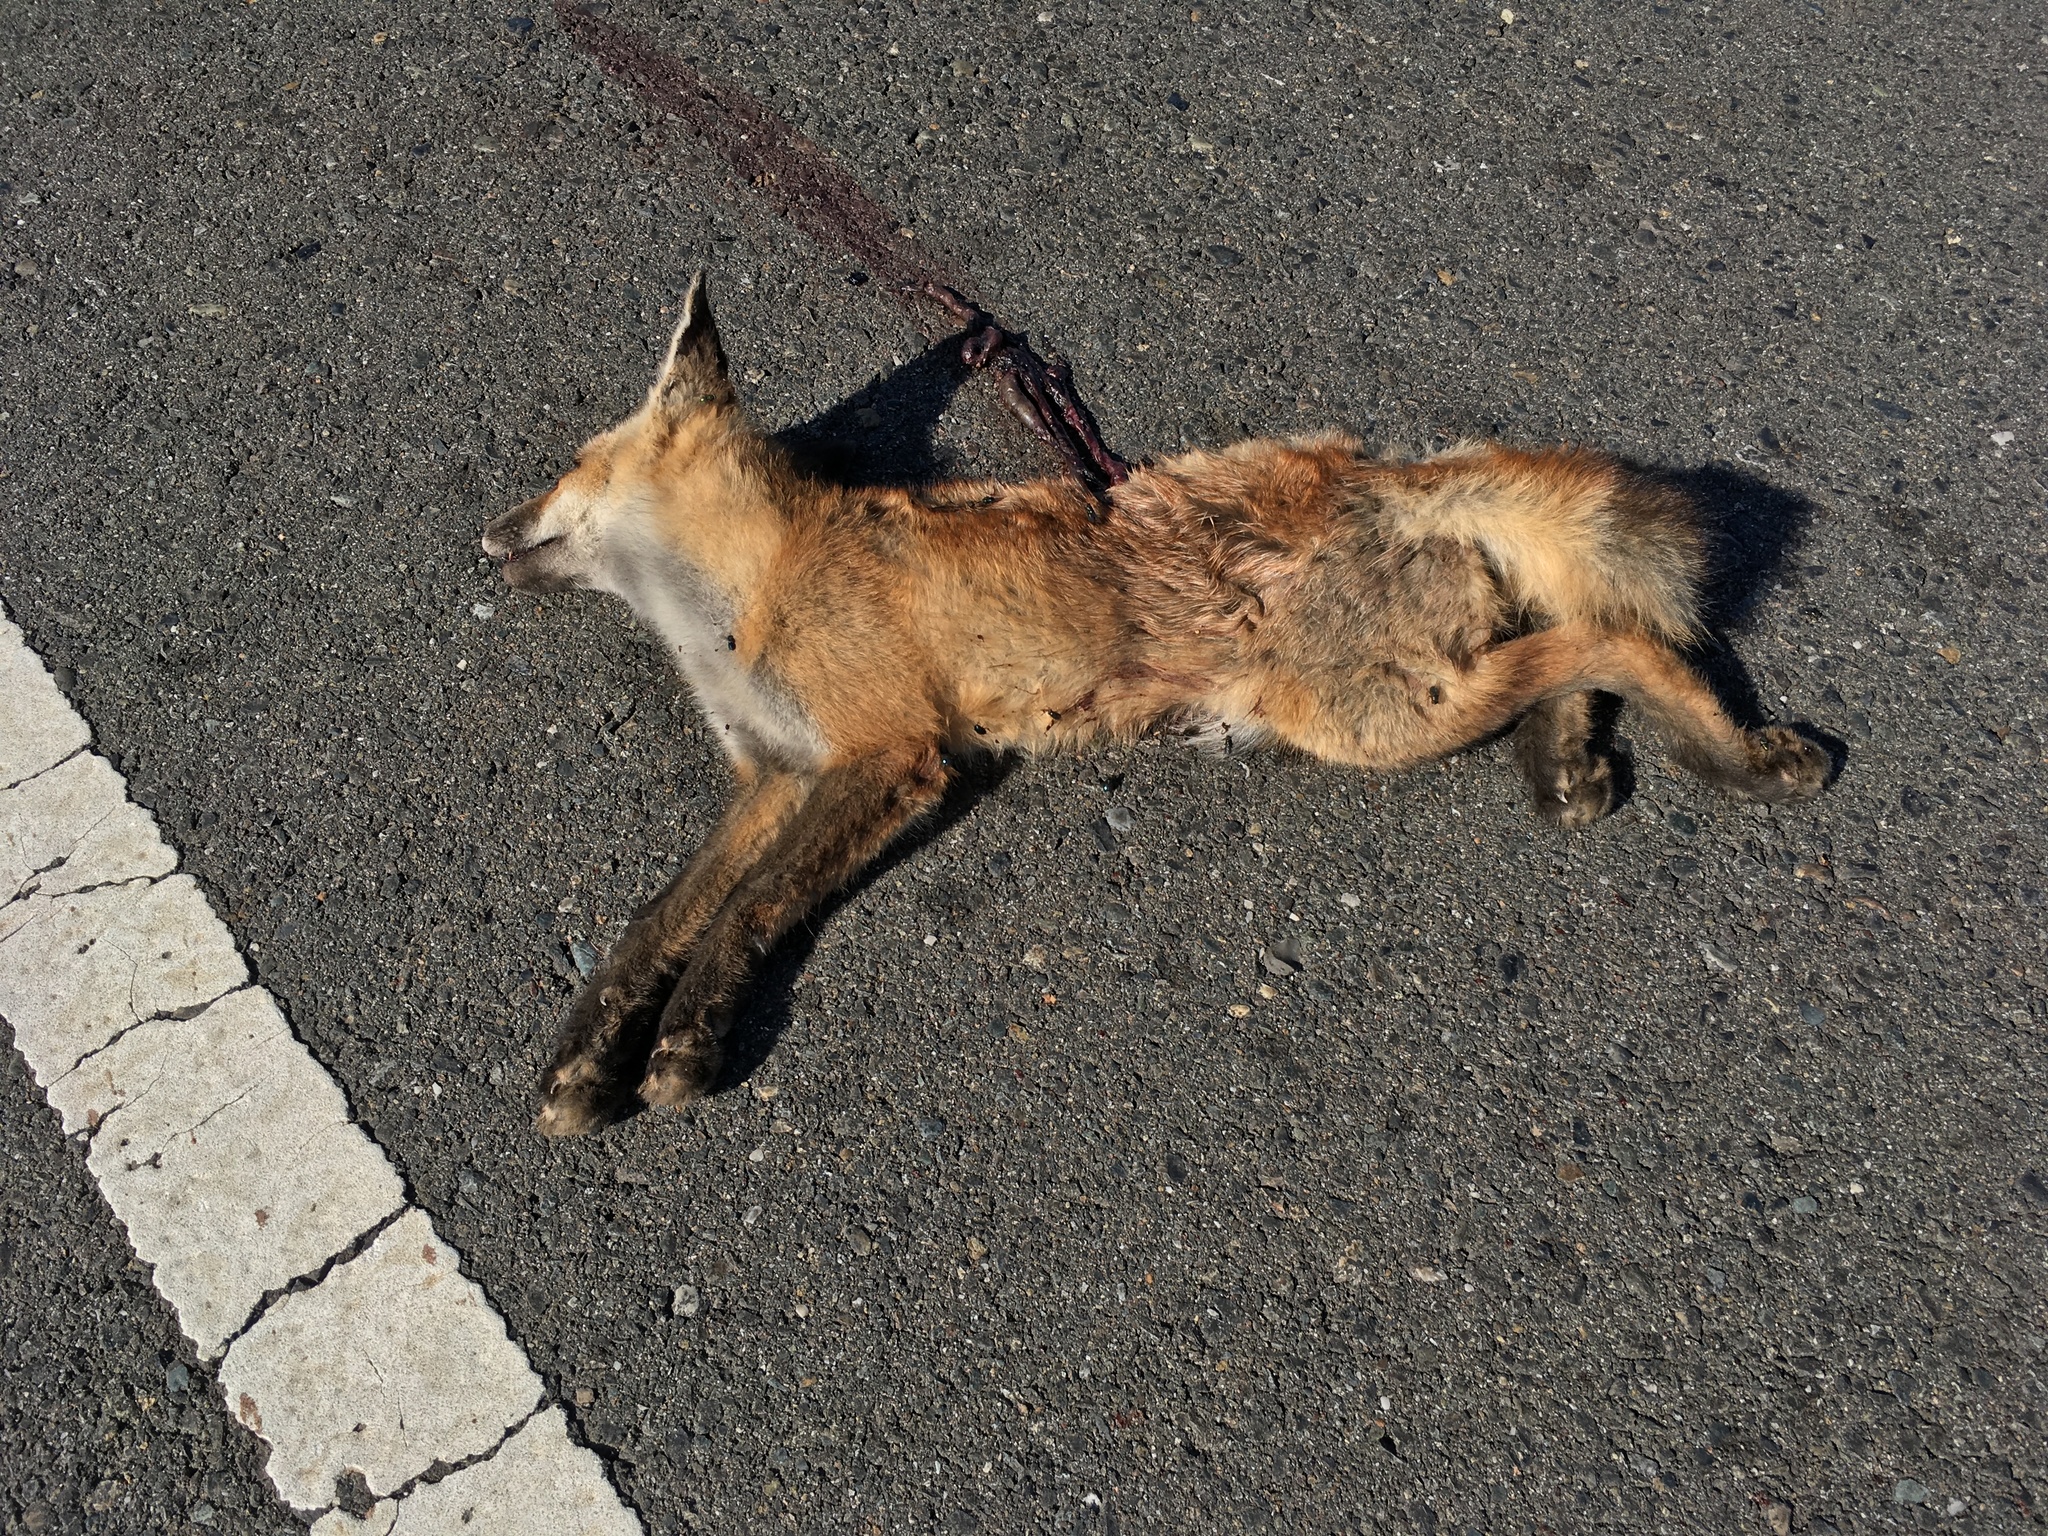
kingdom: Animalia
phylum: Chordata
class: Mammalia
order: Carnivora
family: Canidae
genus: Vulpes
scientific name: Vulpes vulpes
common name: Red fox
